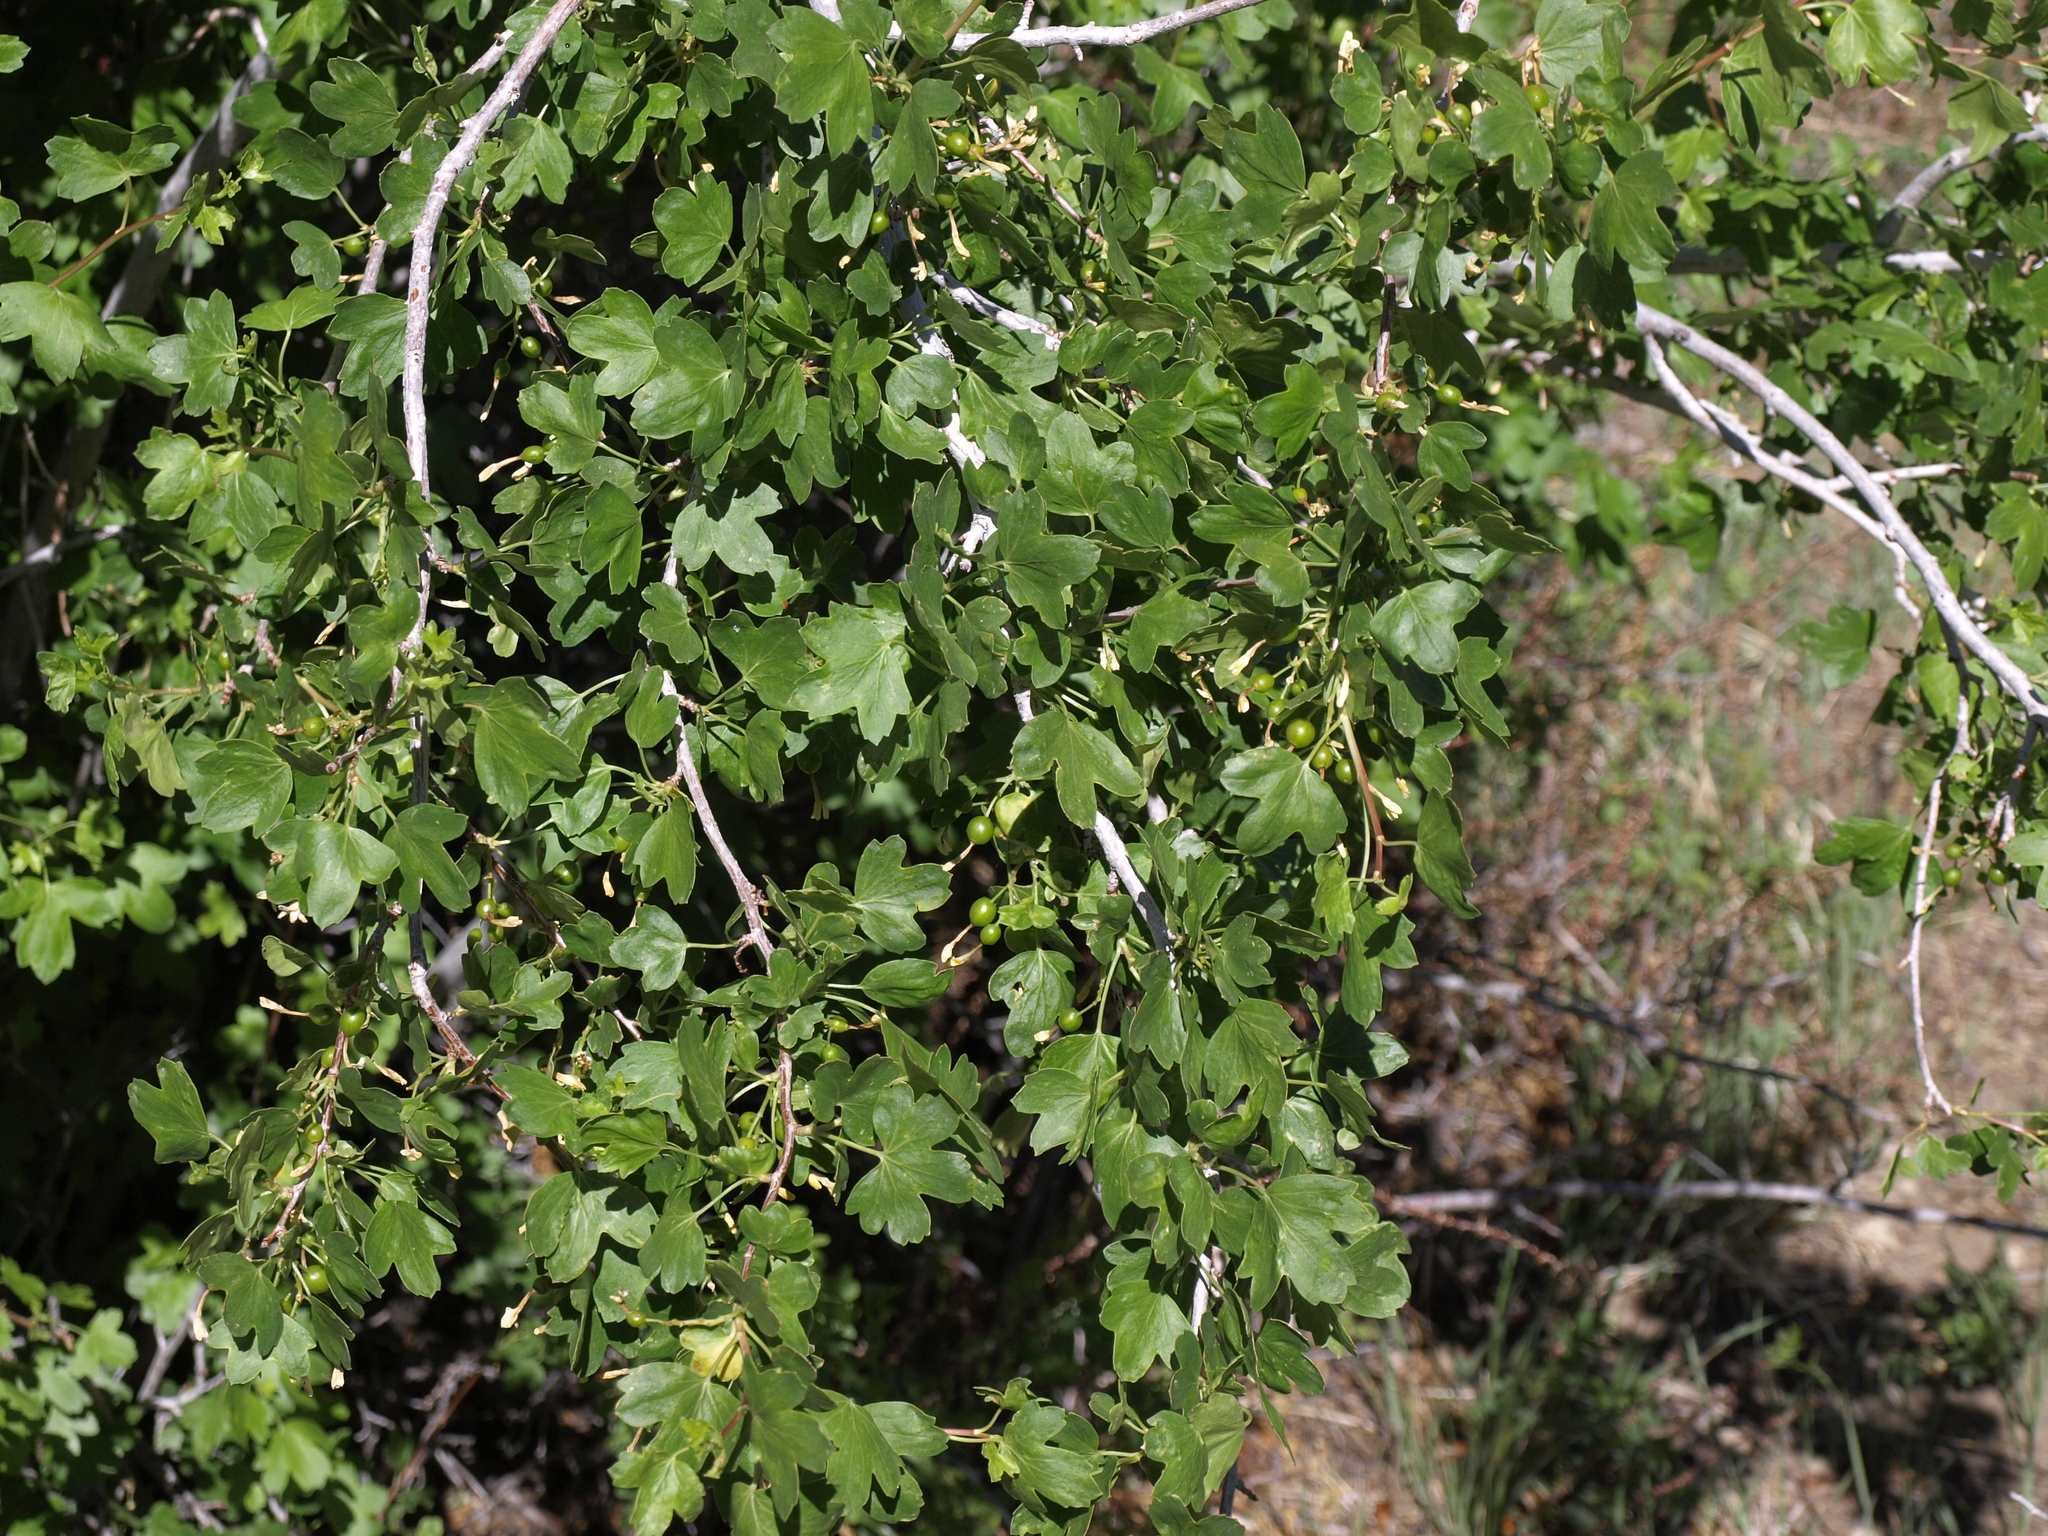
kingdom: Plantae
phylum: Tracheophyta
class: Magnoliopsida
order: Saxifragales
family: Grossulariaceae
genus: Ribes
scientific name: Ribes aureum
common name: Golden currant
